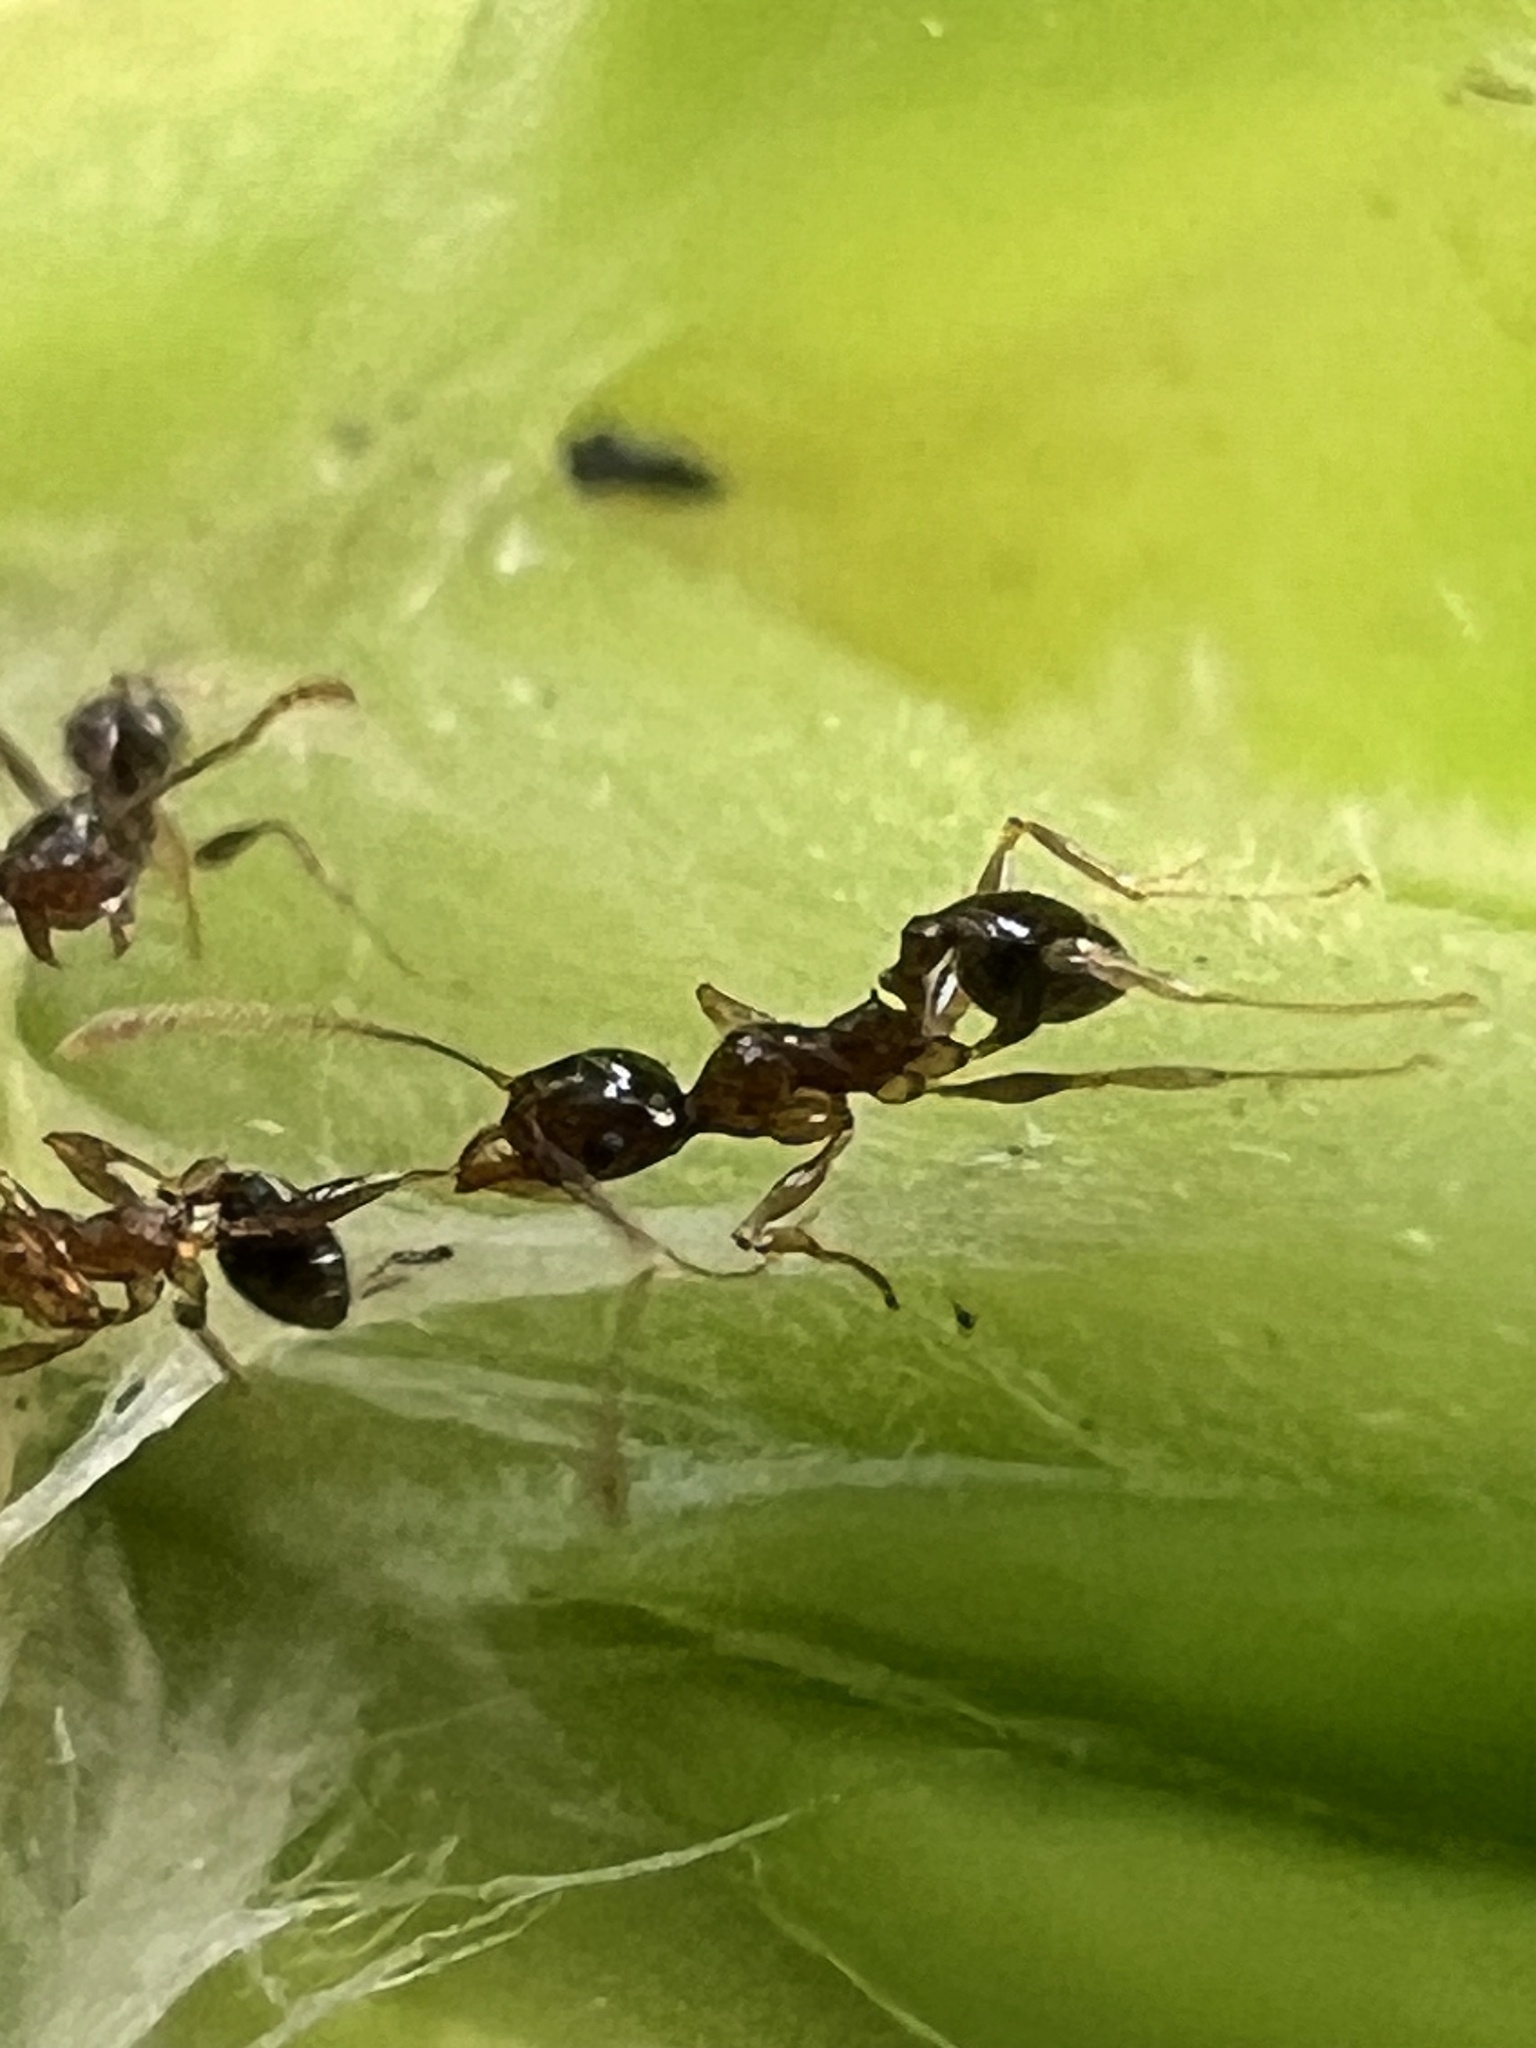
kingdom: Animalia
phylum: Arthropoda
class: Insecta
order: Hymenoptera
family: Formicidae
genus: Pheidole
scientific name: Pheidole megacephala
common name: Bigheaded ant
